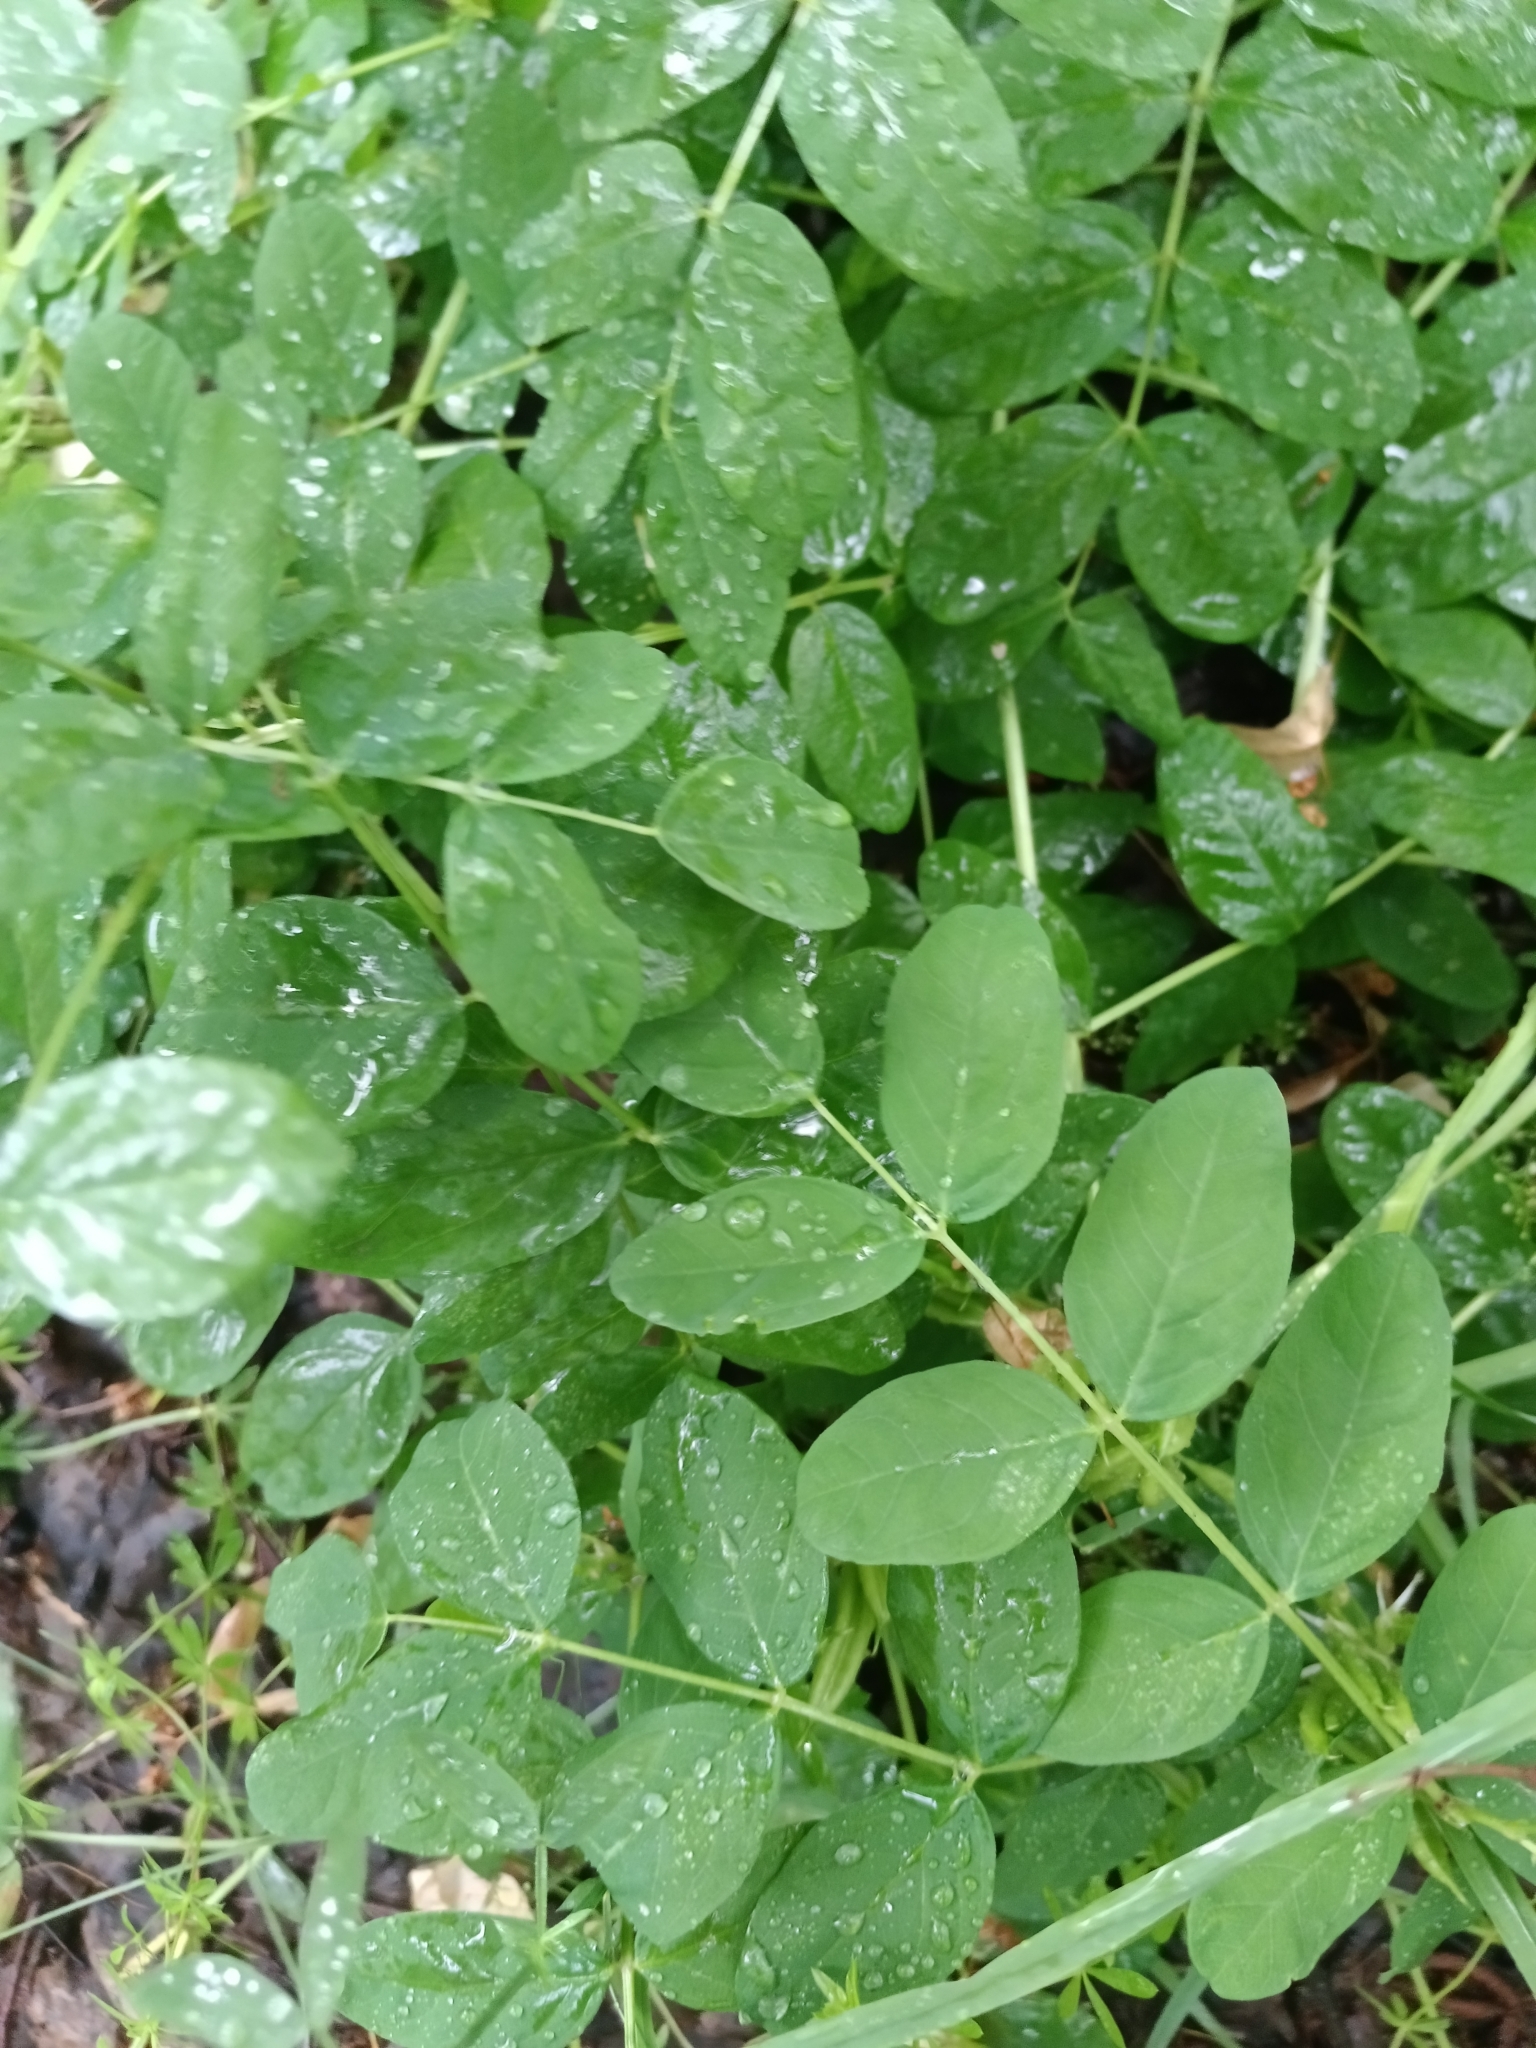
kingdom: Plantae
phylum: Tracheophyta
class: Magnoliopsida
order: Fabales
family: Fabaceae
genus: Astragalus
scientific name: Astragalus glycyphyllos
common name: Wild liquorice
